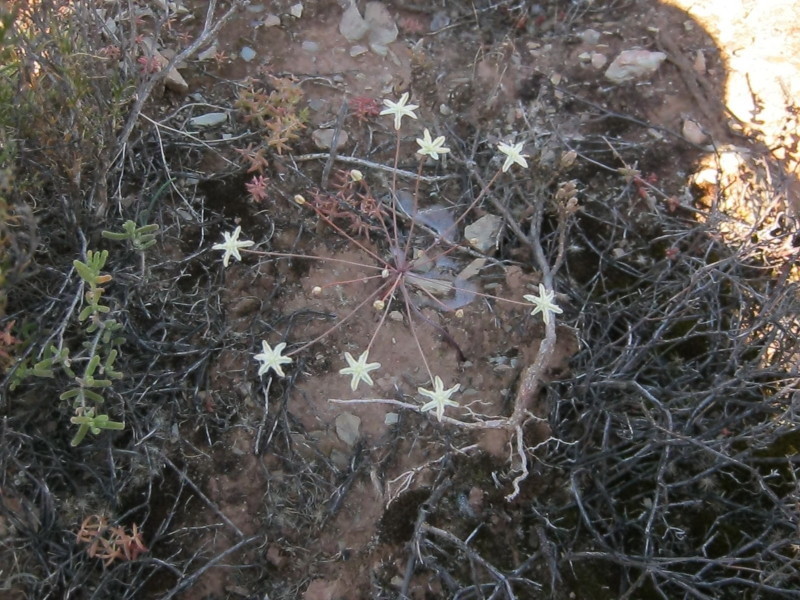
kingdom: Plantae
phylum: Tracheophyta
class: Liliopsida
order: Asparagales
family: Amaryllidaceae
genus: Strumaria
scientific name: Strumaria gemmata
